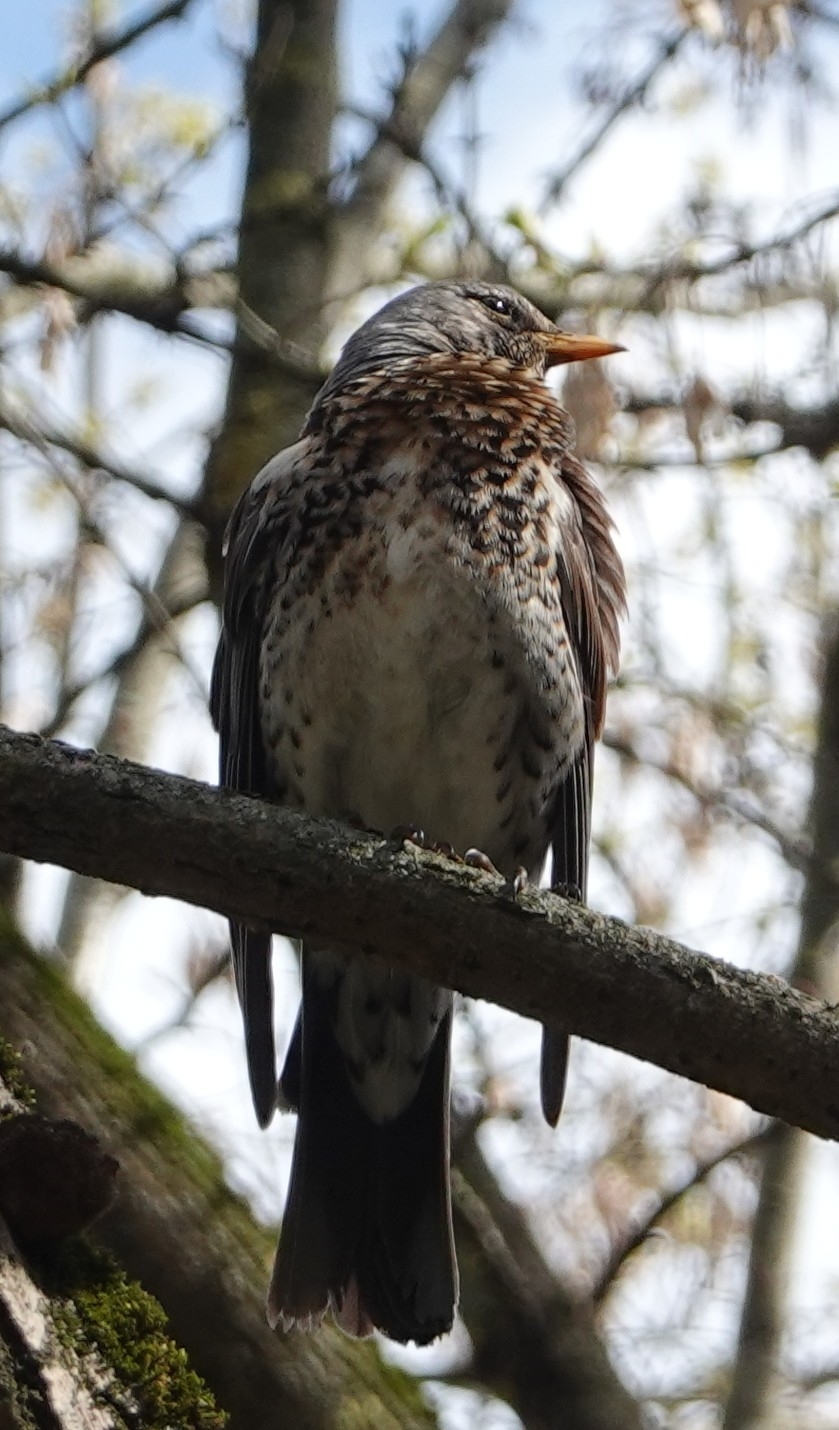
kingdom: Animalia
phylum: Chordata
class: Aves
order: Passeriformes
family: Turdidae
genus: Turdus
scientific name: Turdus pilaris
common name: Fieldfare
